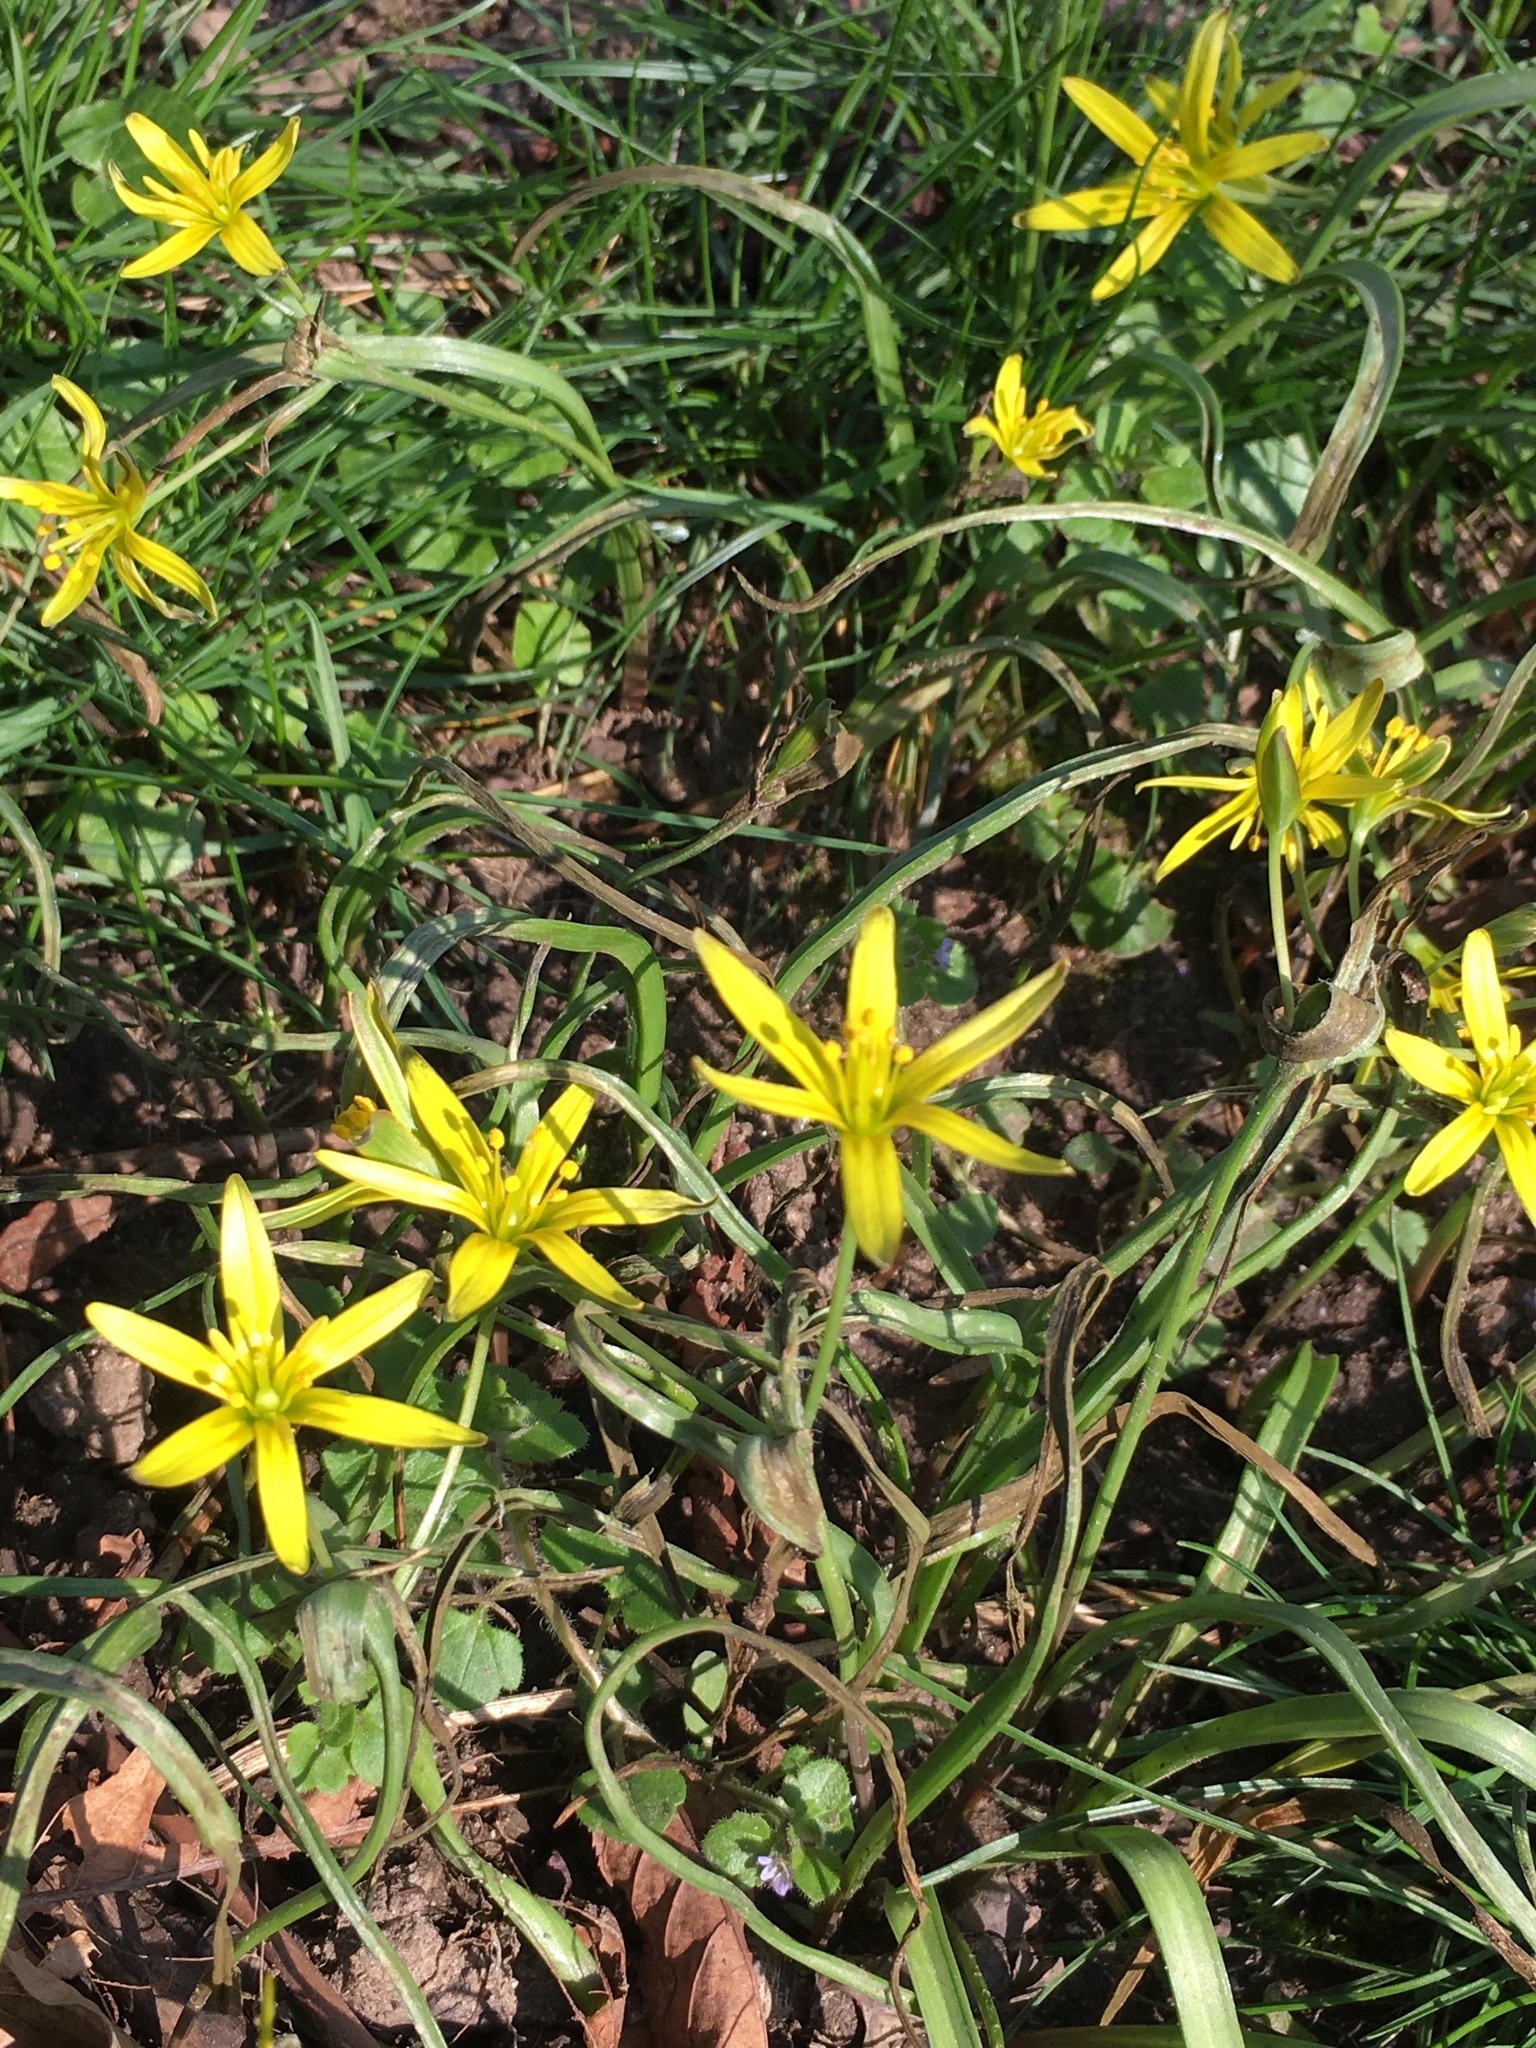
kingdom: Plantae
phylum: Tracheophyta
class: Liliopsida
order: Liliales
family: Liliaceae
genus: Gagea
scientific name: Gagea pratensis
